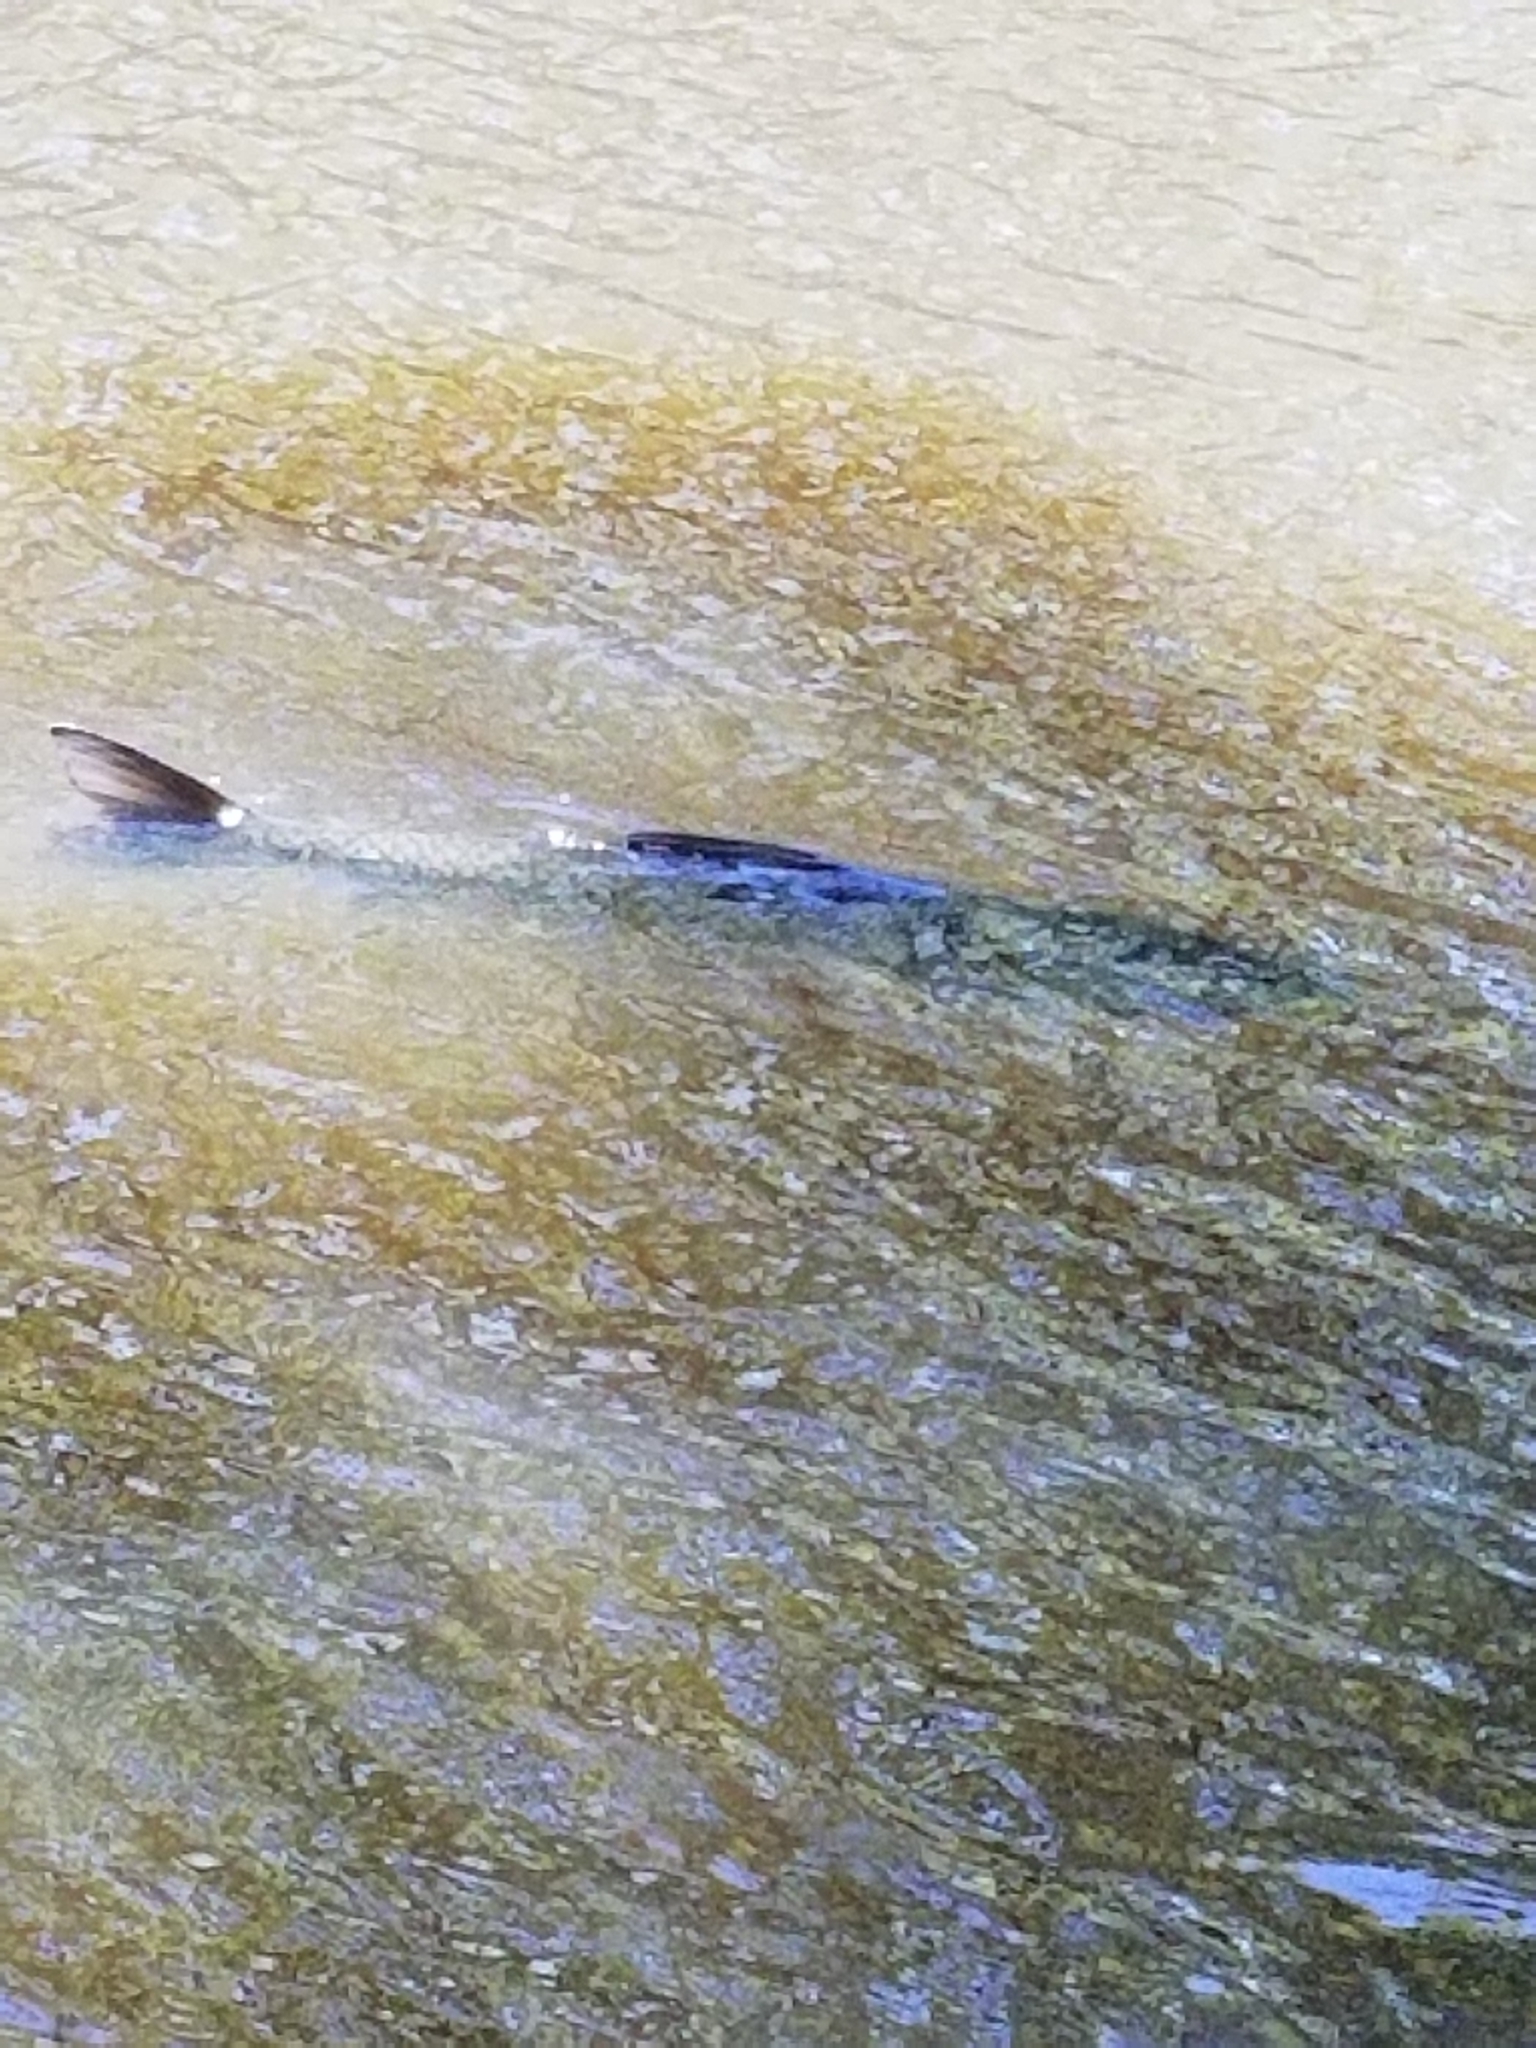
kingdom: Animalia
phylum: Chordata
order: Cypriniformes
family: Cyprinidae
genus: Ctenopharyngodon
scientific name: Ctenopharyngodon idella
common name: Grass carp
